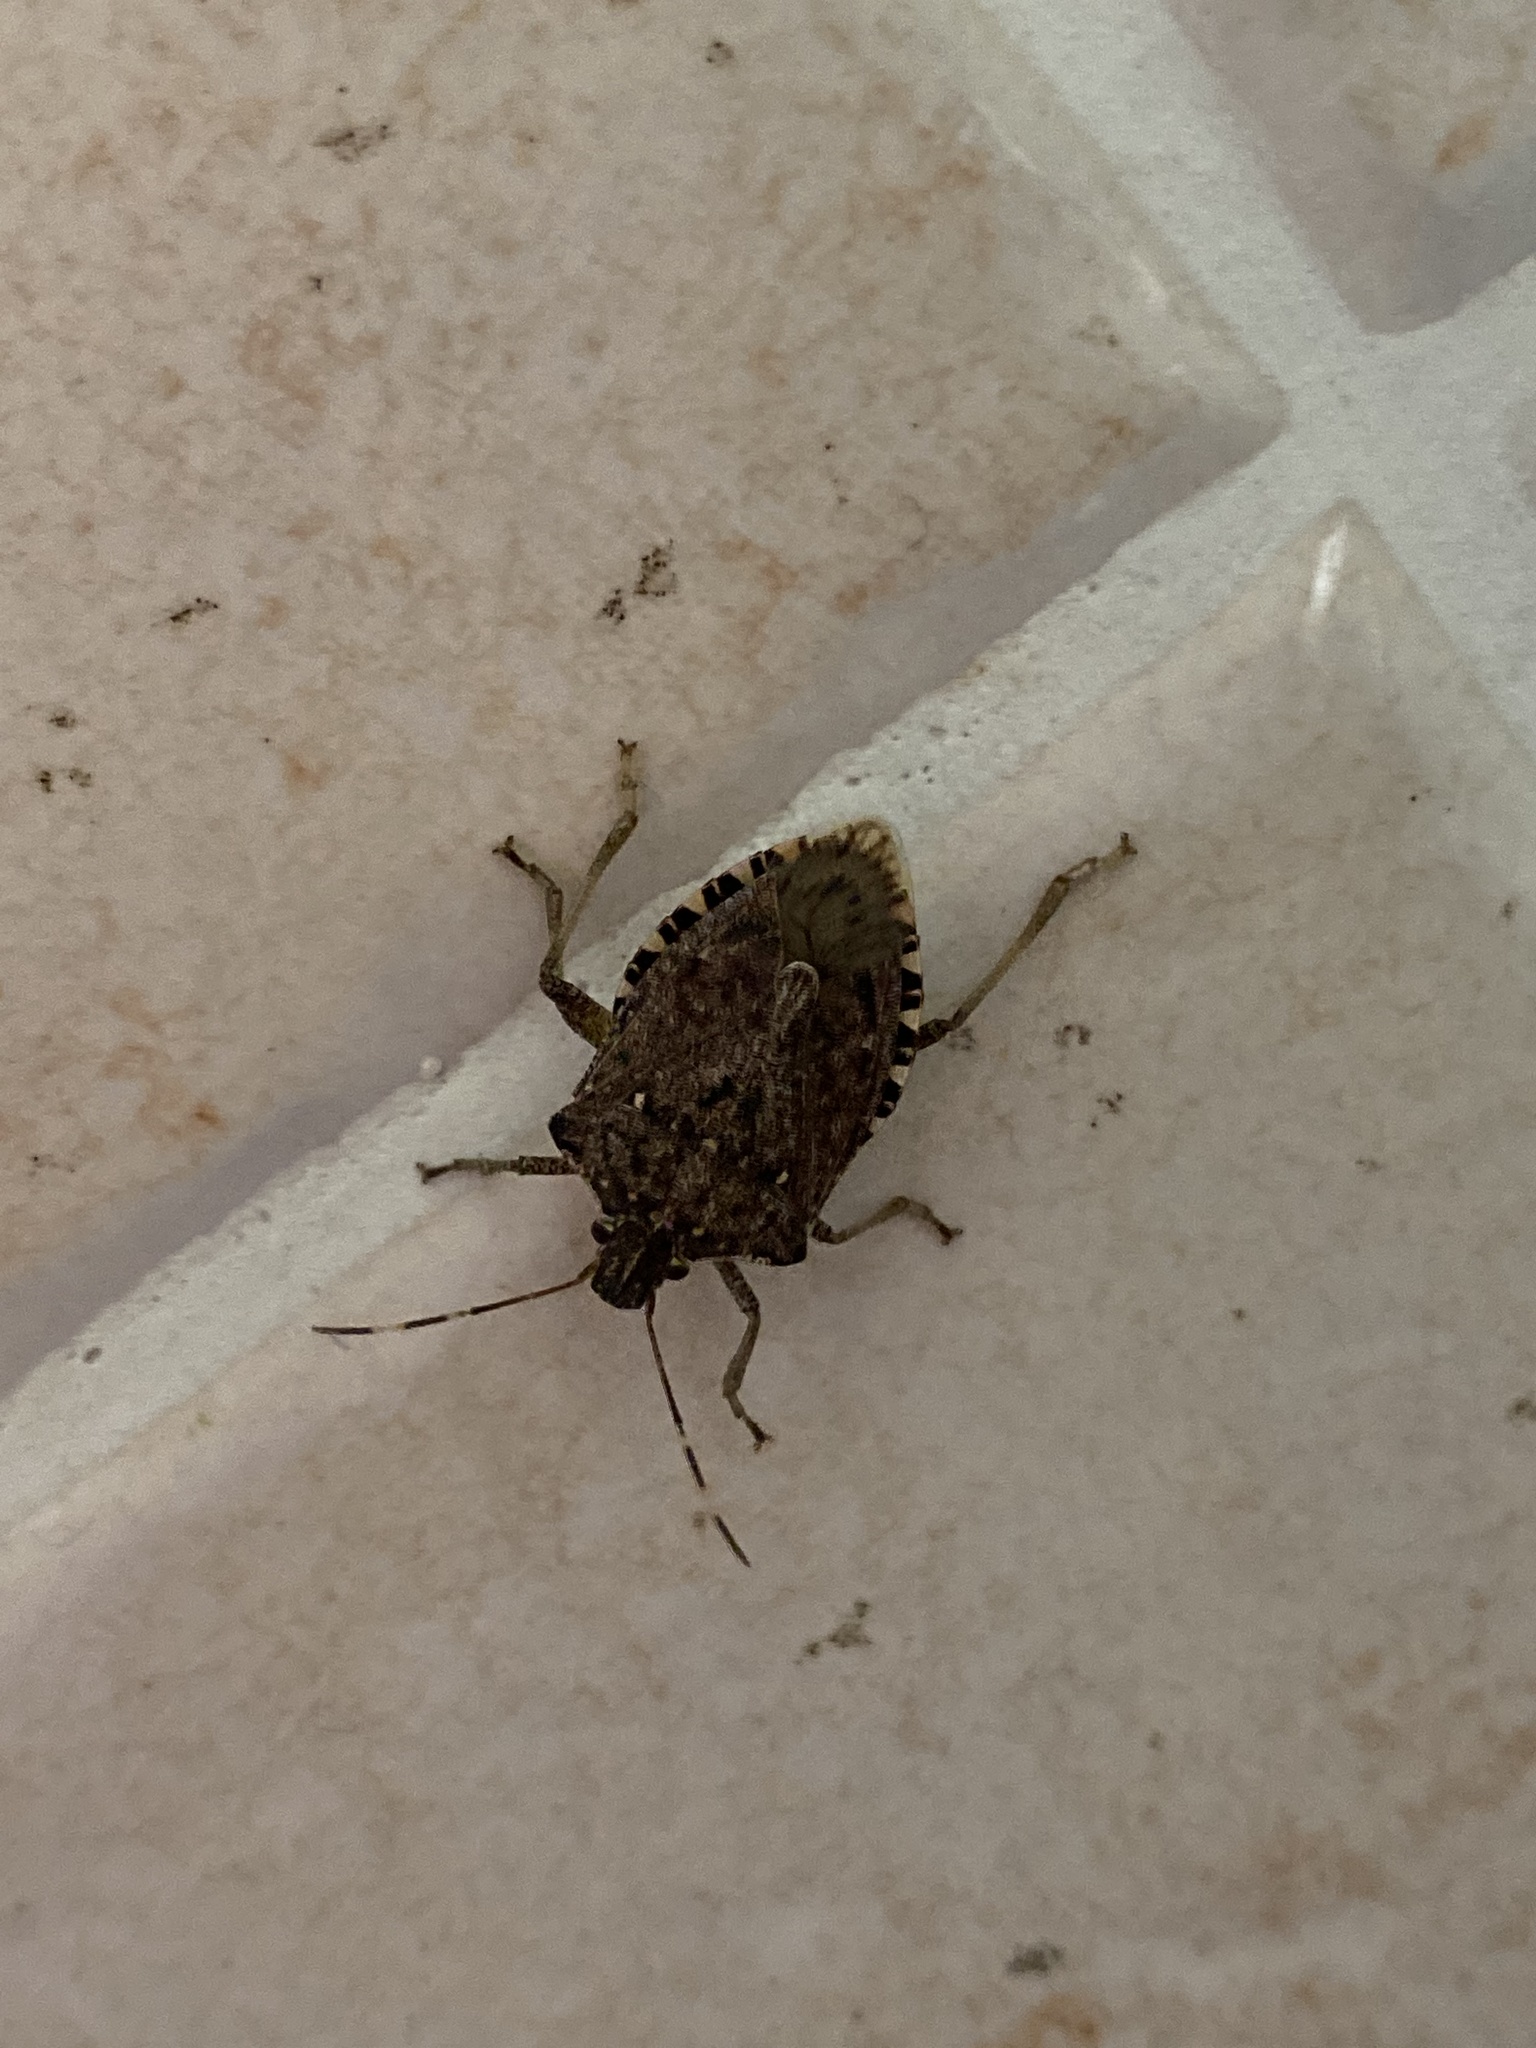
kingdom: Animalia
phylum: Arthropoda
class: Insecta
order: Hemiptera
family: Pentatomidae
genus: Halyomorpha
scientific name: Halyomorpha halys
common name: Brown marmorated stink bug
